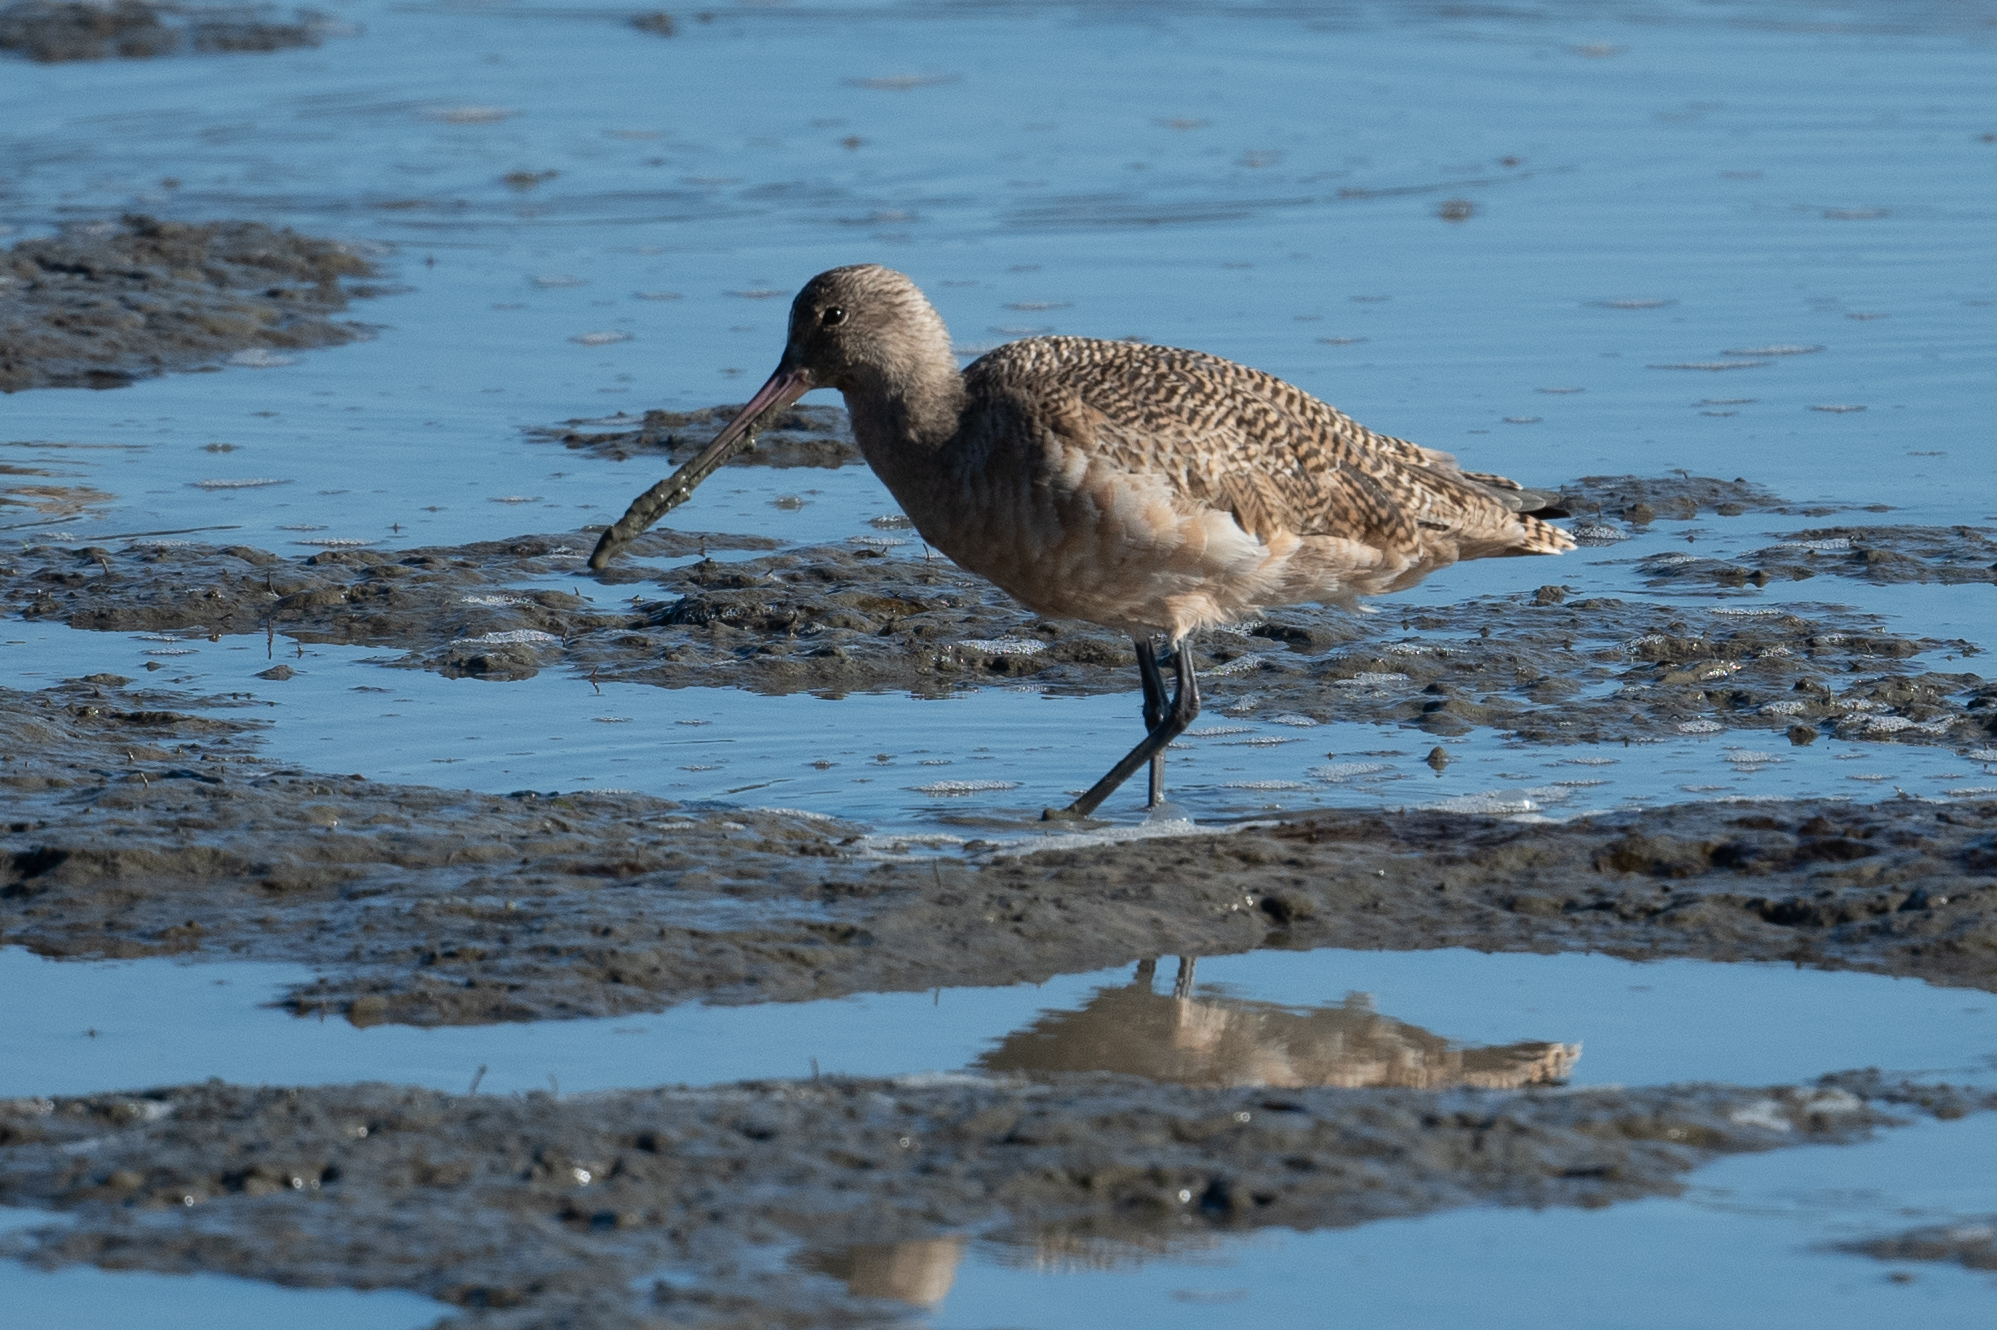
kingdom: Animalia
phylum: Chordata
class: Aves
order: Charadriiformes
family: Scolopacidae
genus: Limosa
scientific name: Limosa fedoa
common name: Marbled godwit
